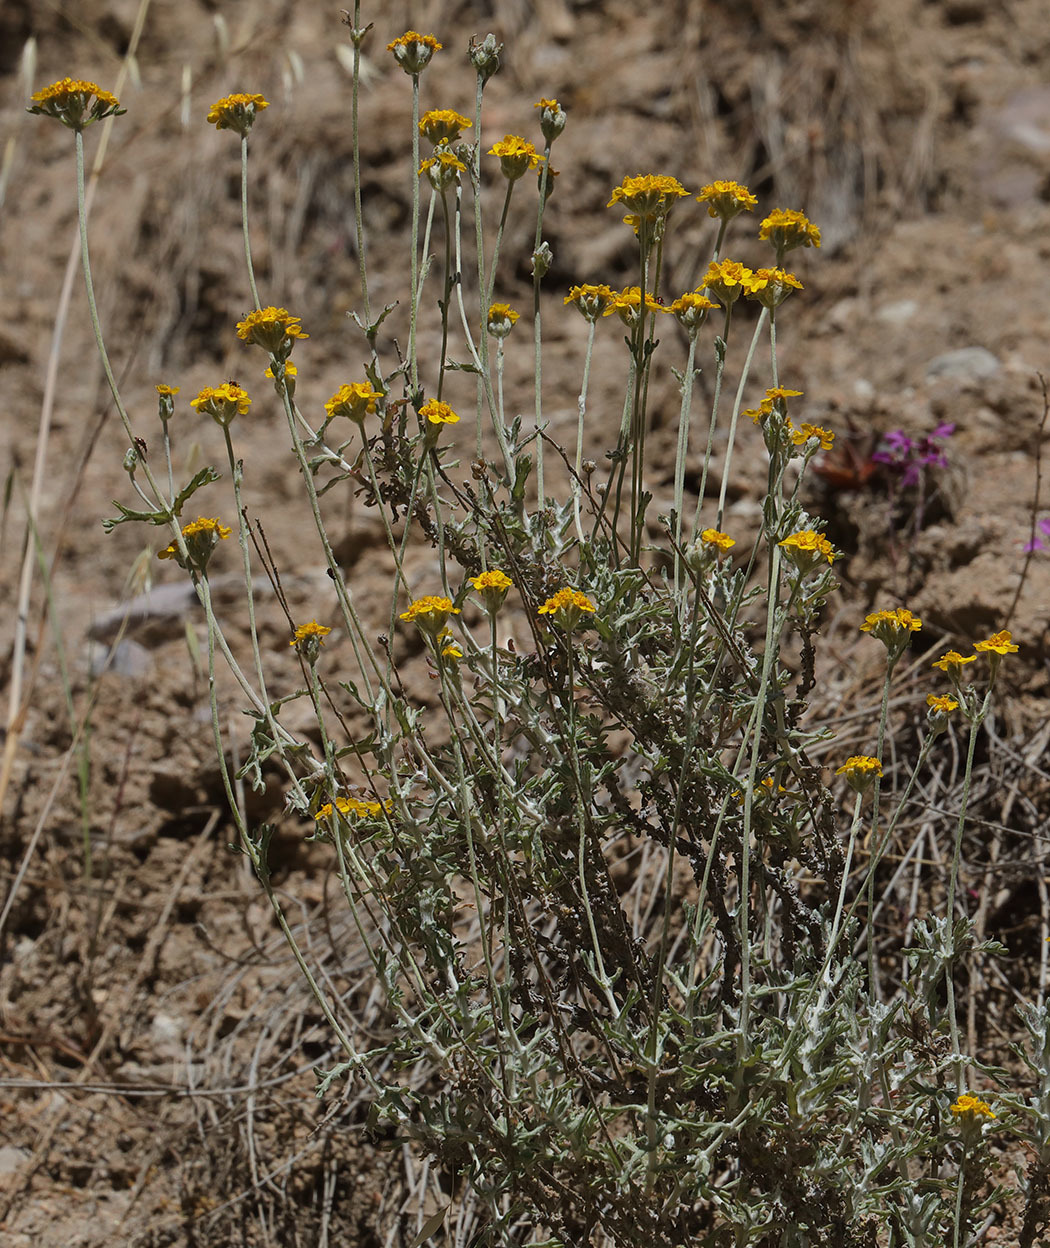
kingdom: Plantae
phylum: Tracheophyta
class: Magnoliopsida
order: Asterales
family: Asteraceae
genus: Eriophyllum
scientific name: Eriophyllum confertiflorum
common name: Golden-yarrow
